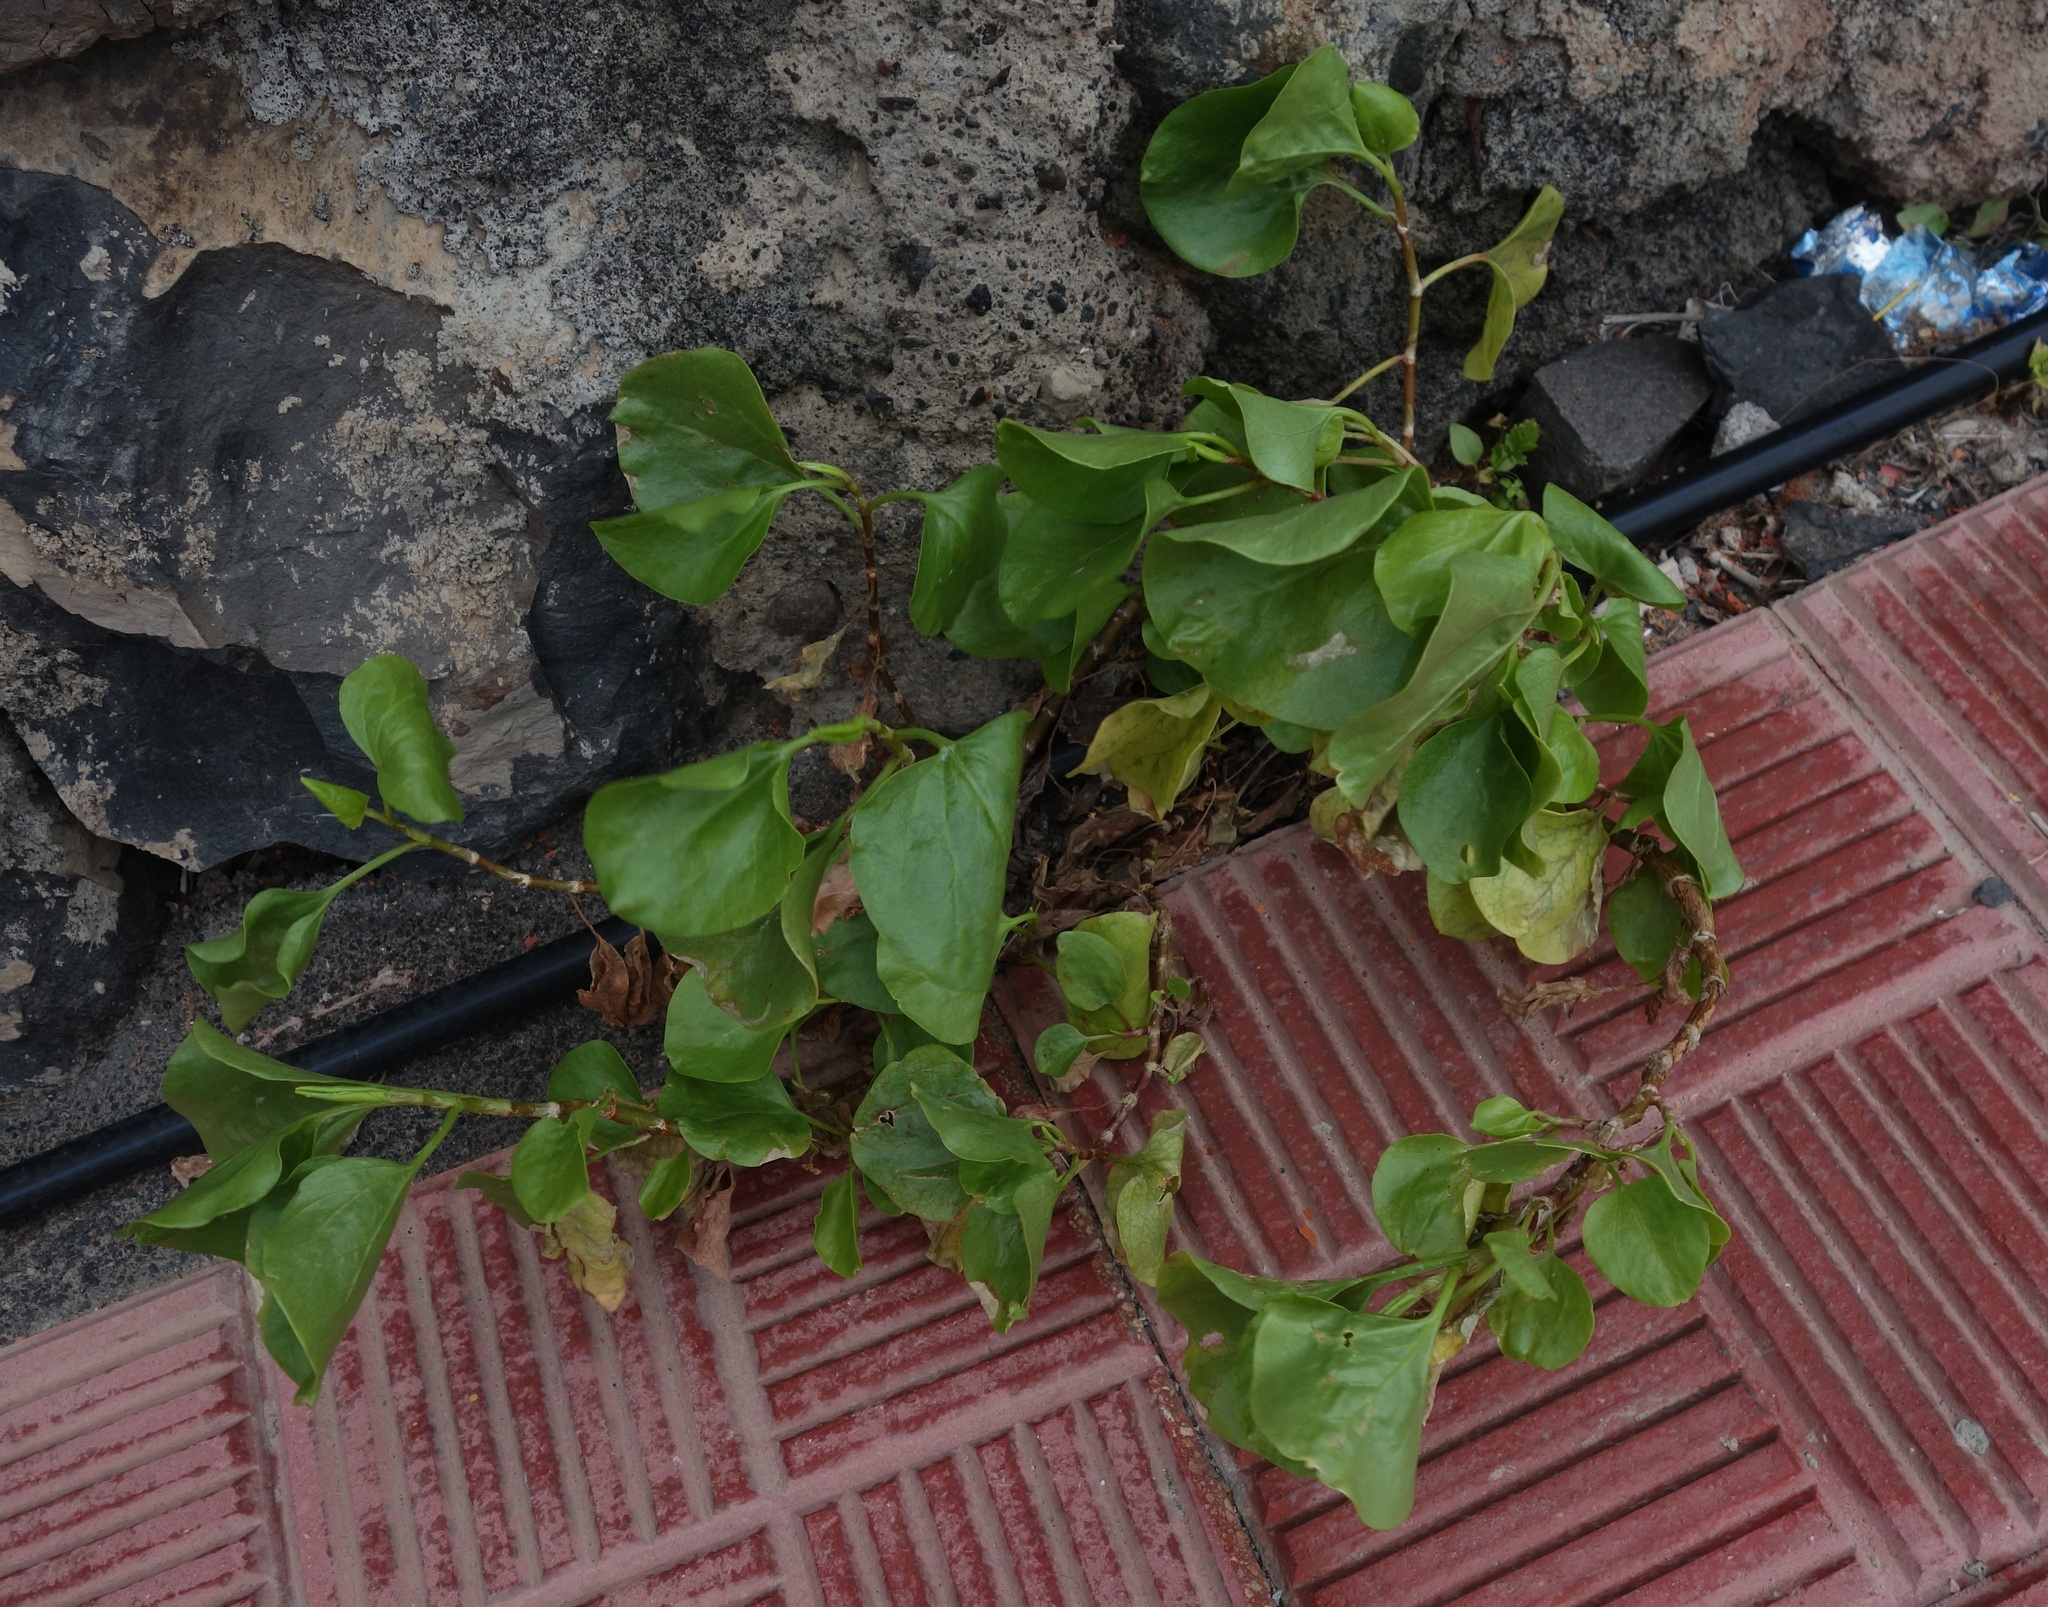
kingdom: Plantae
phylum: Tracheophyta
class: Magnoliopsida
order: Caryophyllales
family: Polygonaceae
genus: Rumex
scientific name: Rumex lunaria
